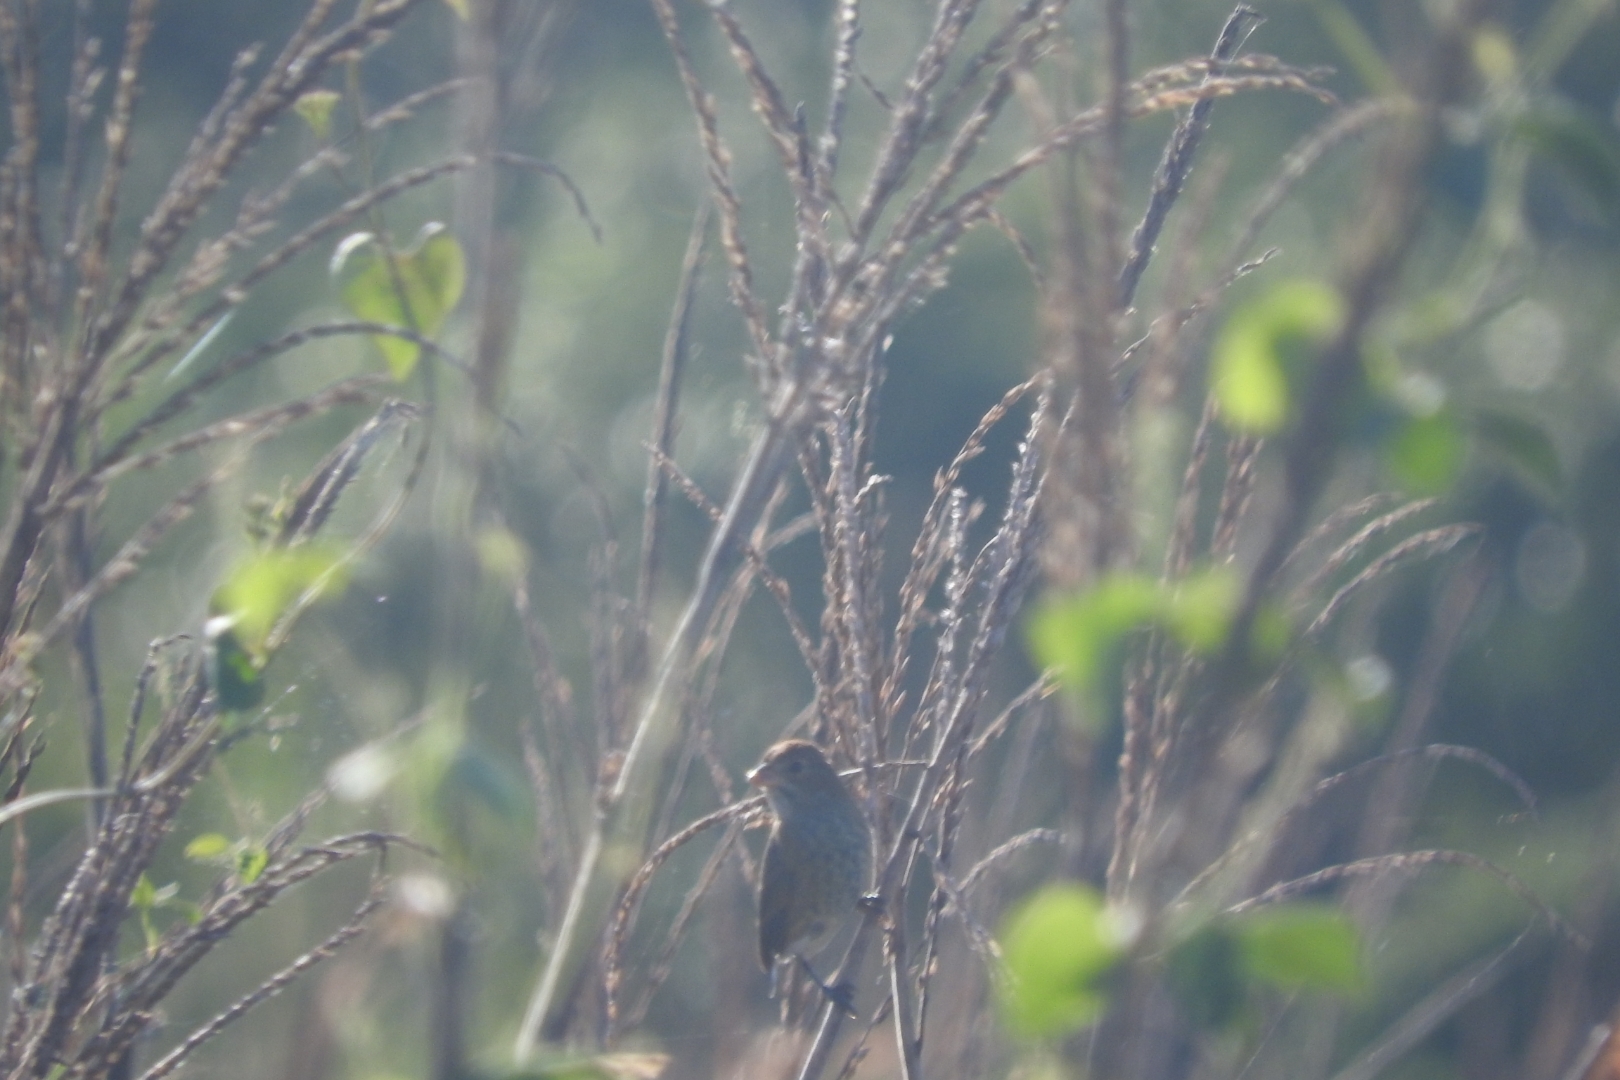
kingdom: Animalia
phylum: Chordata
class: Aves
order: Passeriformes
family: Cardinalidae
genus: Passerina
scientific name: Passerina cyanea
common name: Indigo bunting
